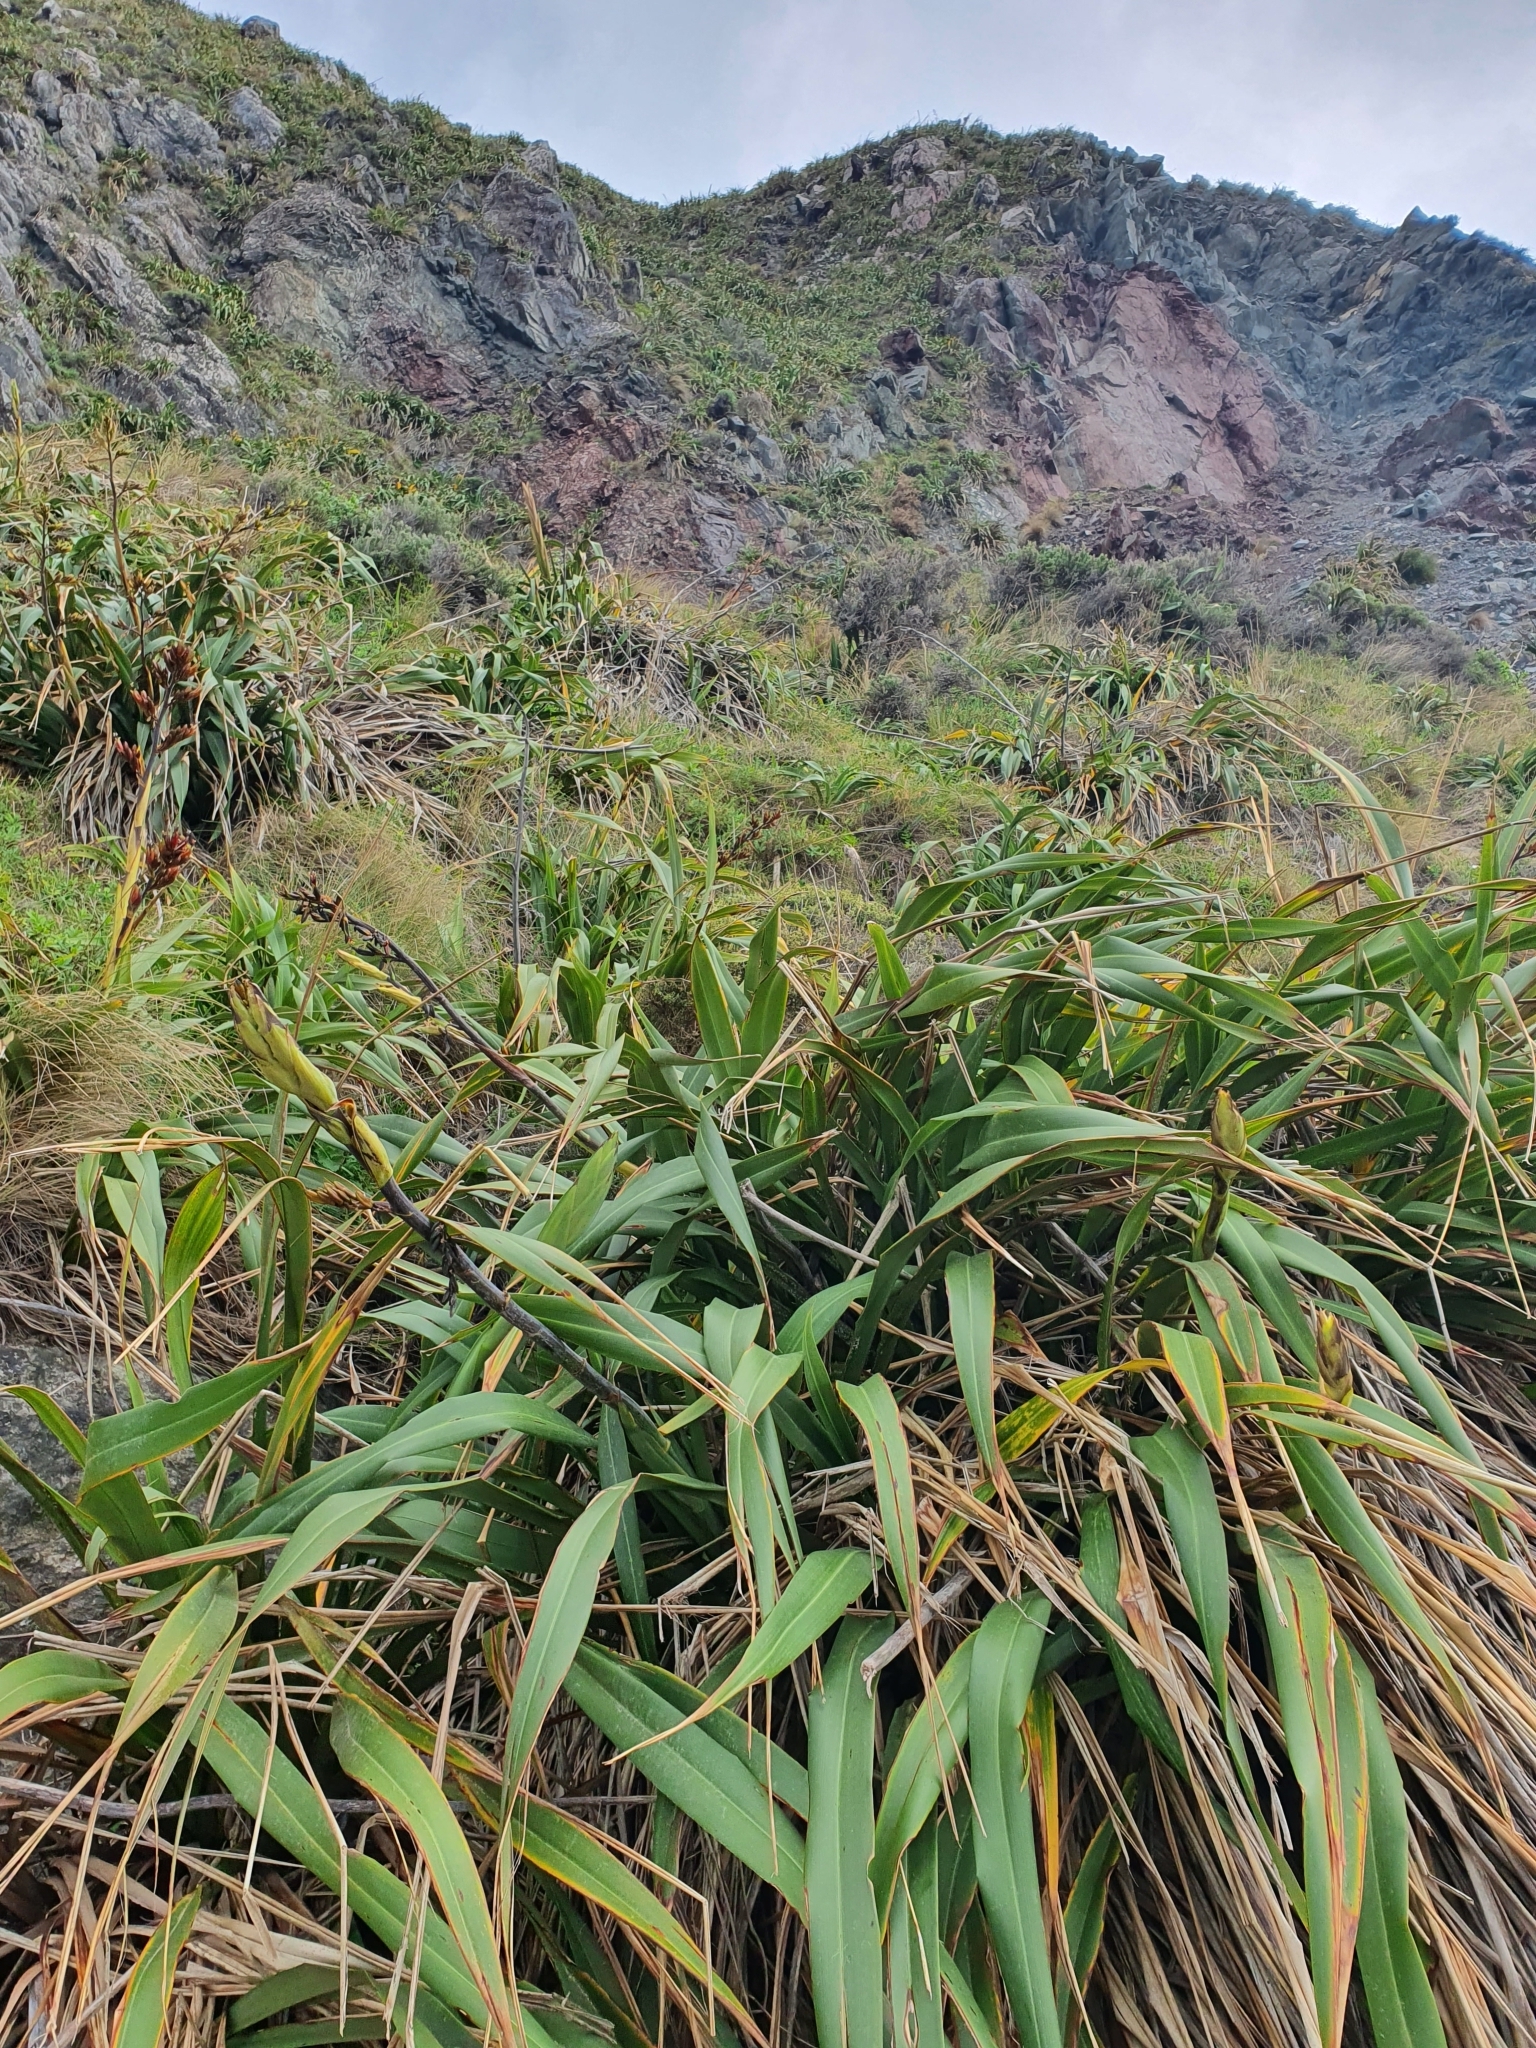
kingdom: Plantae
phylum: Tracheophyta
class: Liliopsida
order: Asparagales
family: Asphodelaceae
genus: Phormium
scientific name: Phormium colensoi
